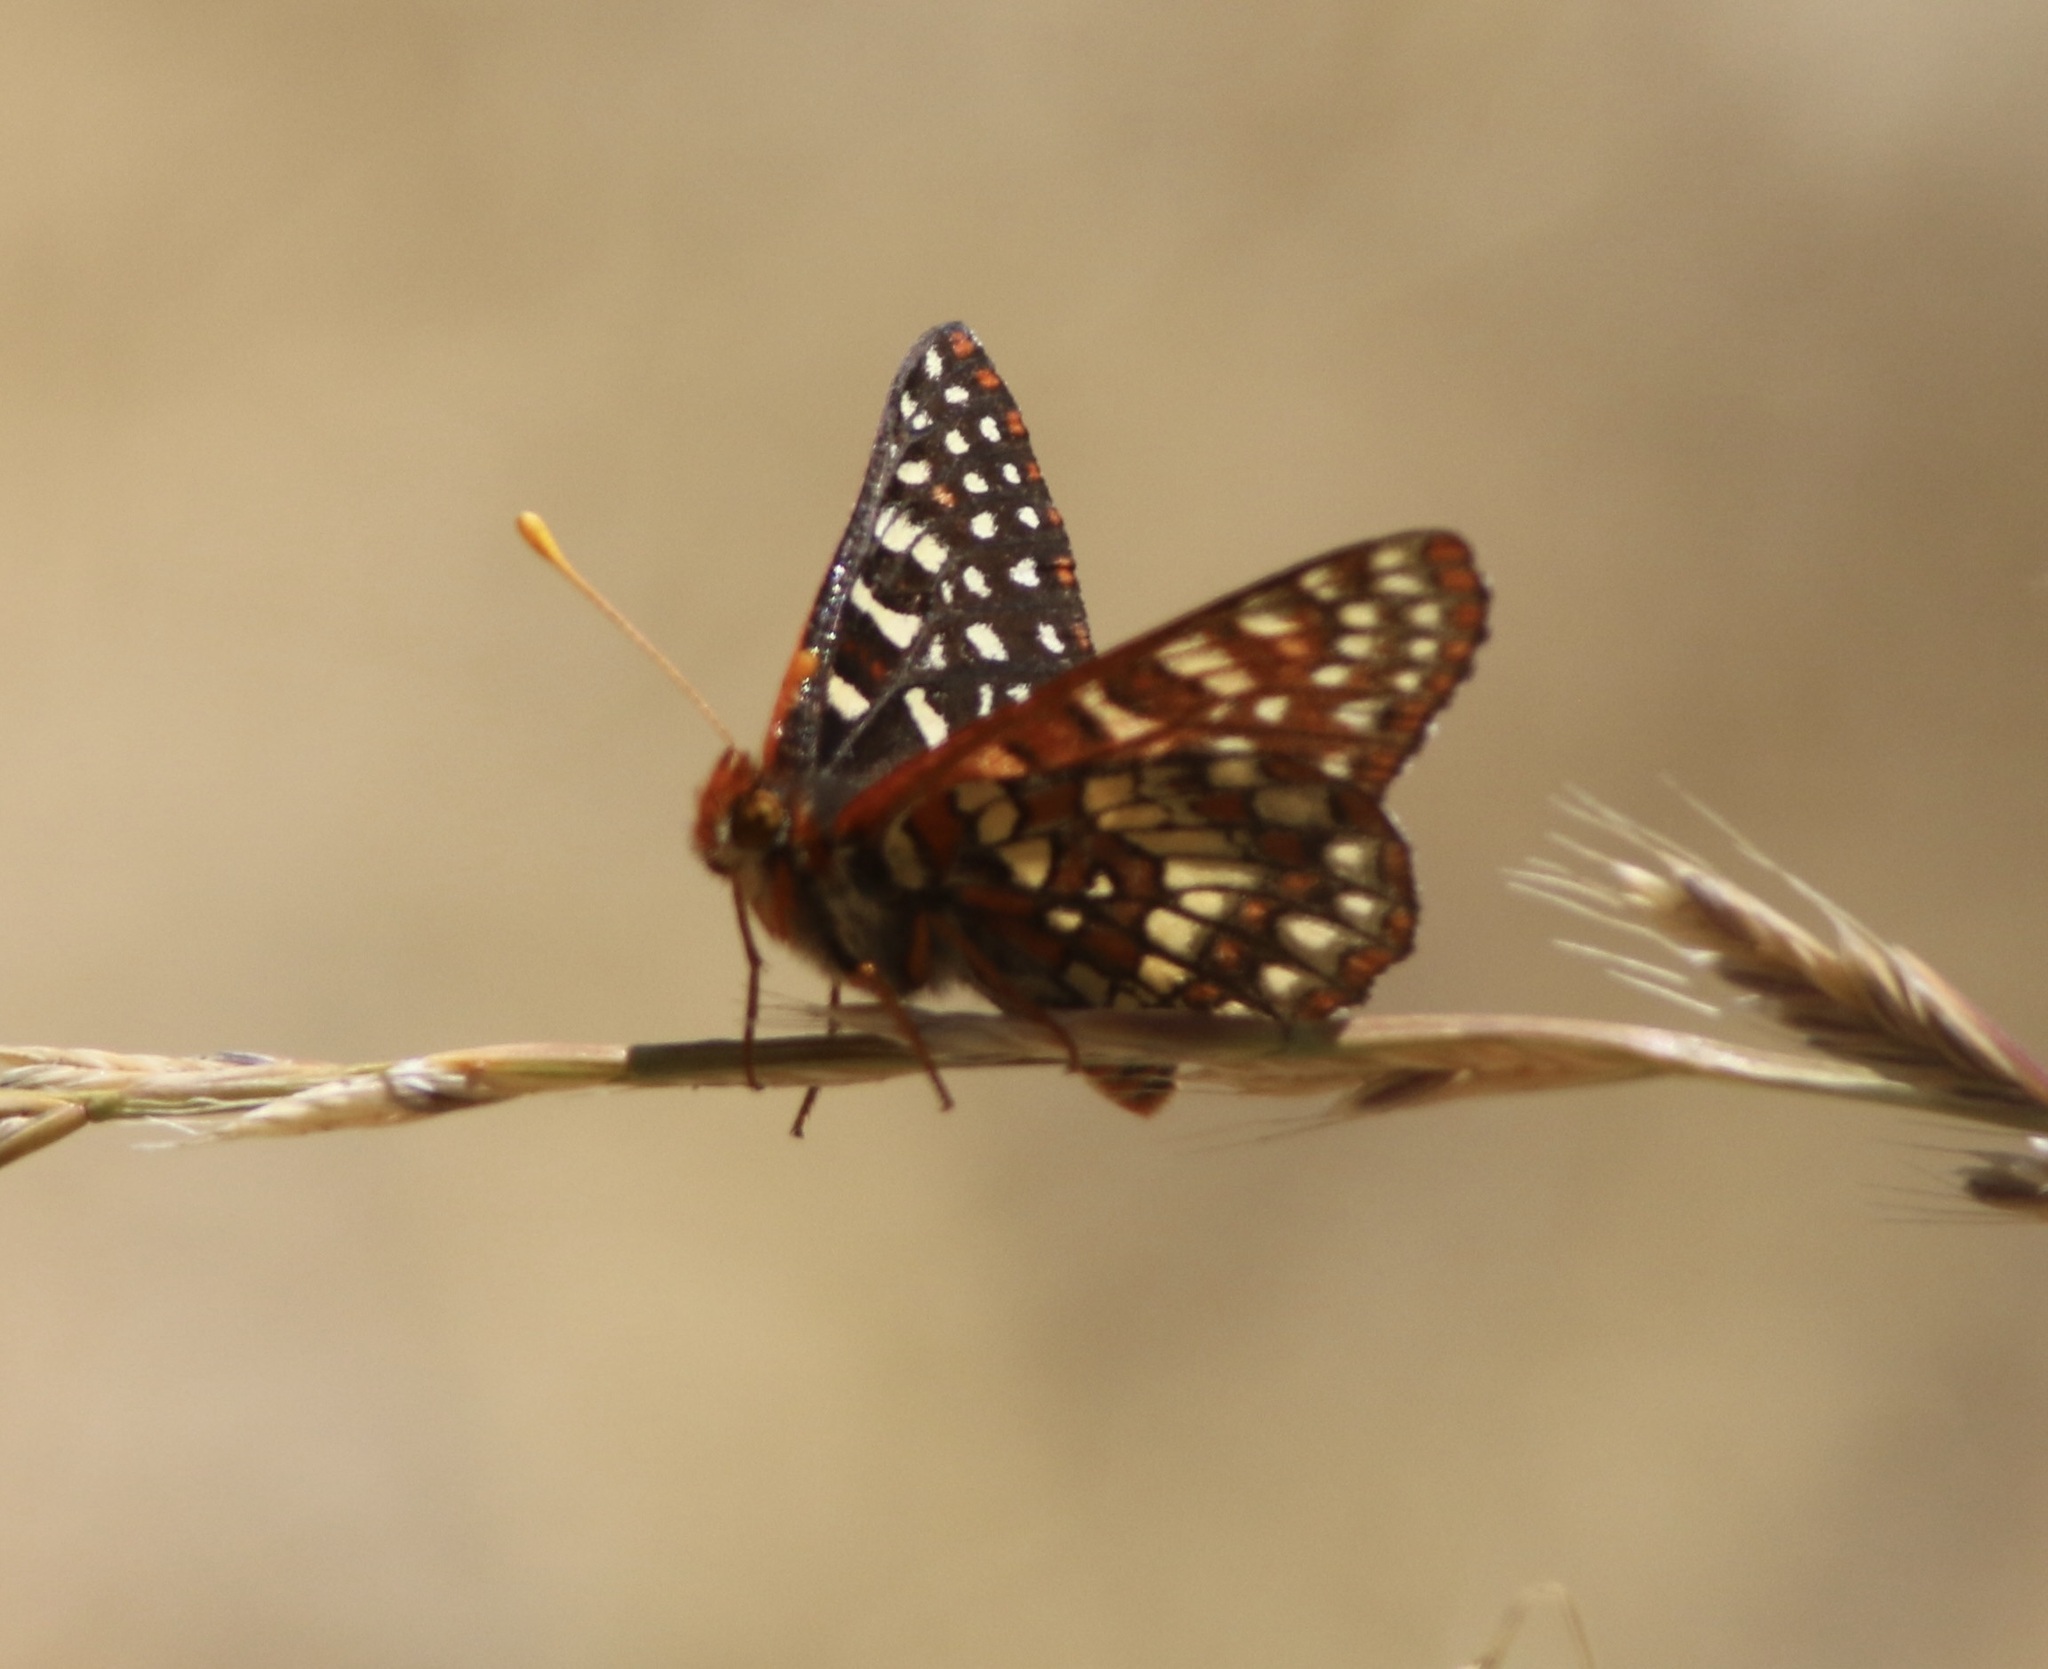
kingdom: Animalia
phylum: Arthropoda
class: Insecta
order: Lepidoptera
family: Nymphalidae
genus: Occidryas
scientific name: Occidryas chalcedona
